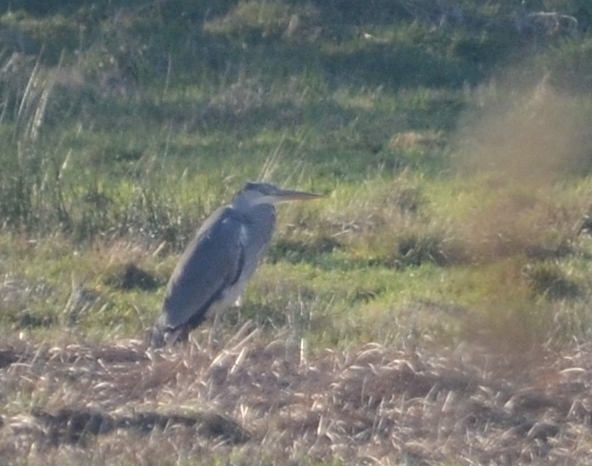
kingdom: Animalia
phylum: Chordata
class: Aves
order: Pelecaniformes
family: Ardeidae
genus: Ardea
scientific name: Ardea cinerea
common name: Grey heron
